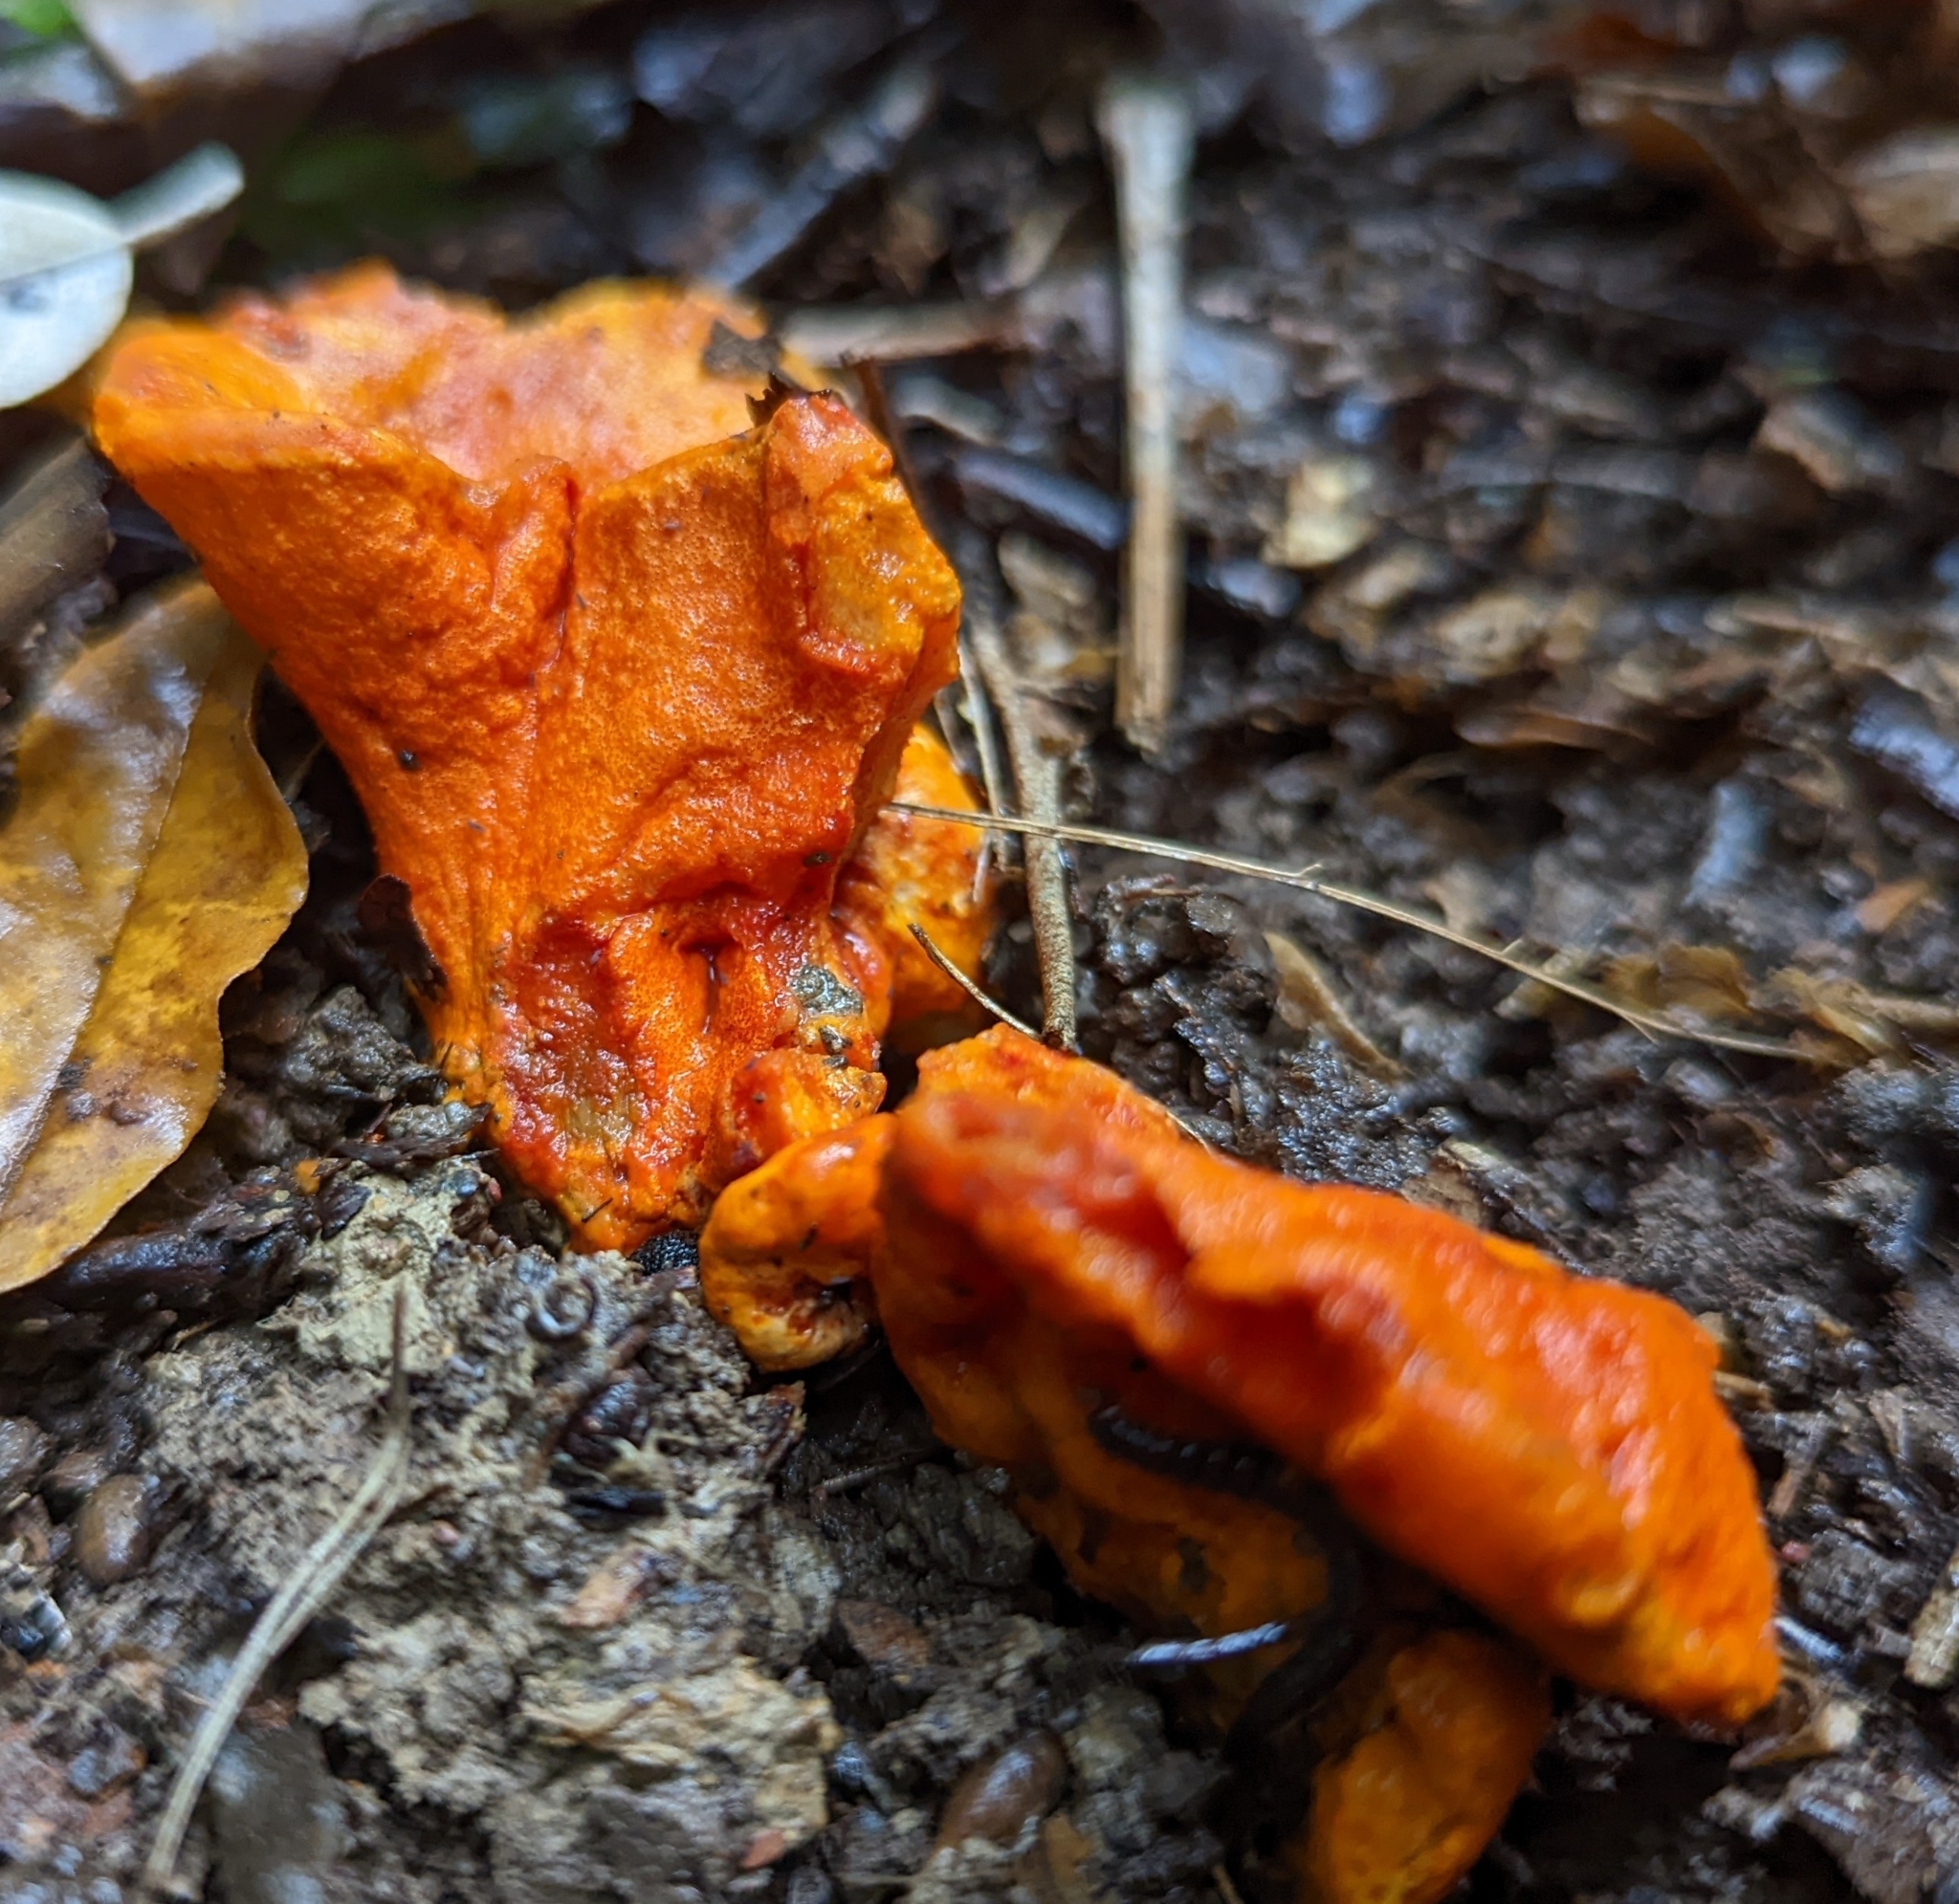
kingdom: Fungi
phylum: Ascomycota
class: Sordariomycetes
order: Hypocreales
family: Hypocreaceae
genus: Hypomyces
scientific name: Hypomyces lactifluorum
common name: Lobster mushroom
